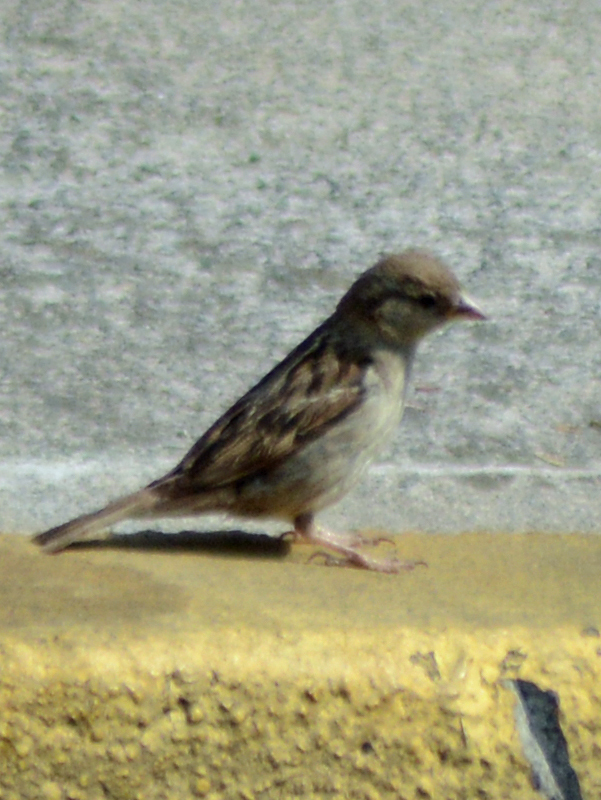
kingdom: Animalia
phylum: Chordata
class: Aves
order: Passeriformes
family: Passeridae
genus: Passer
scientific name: Passer domesticus
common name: House sparrow
